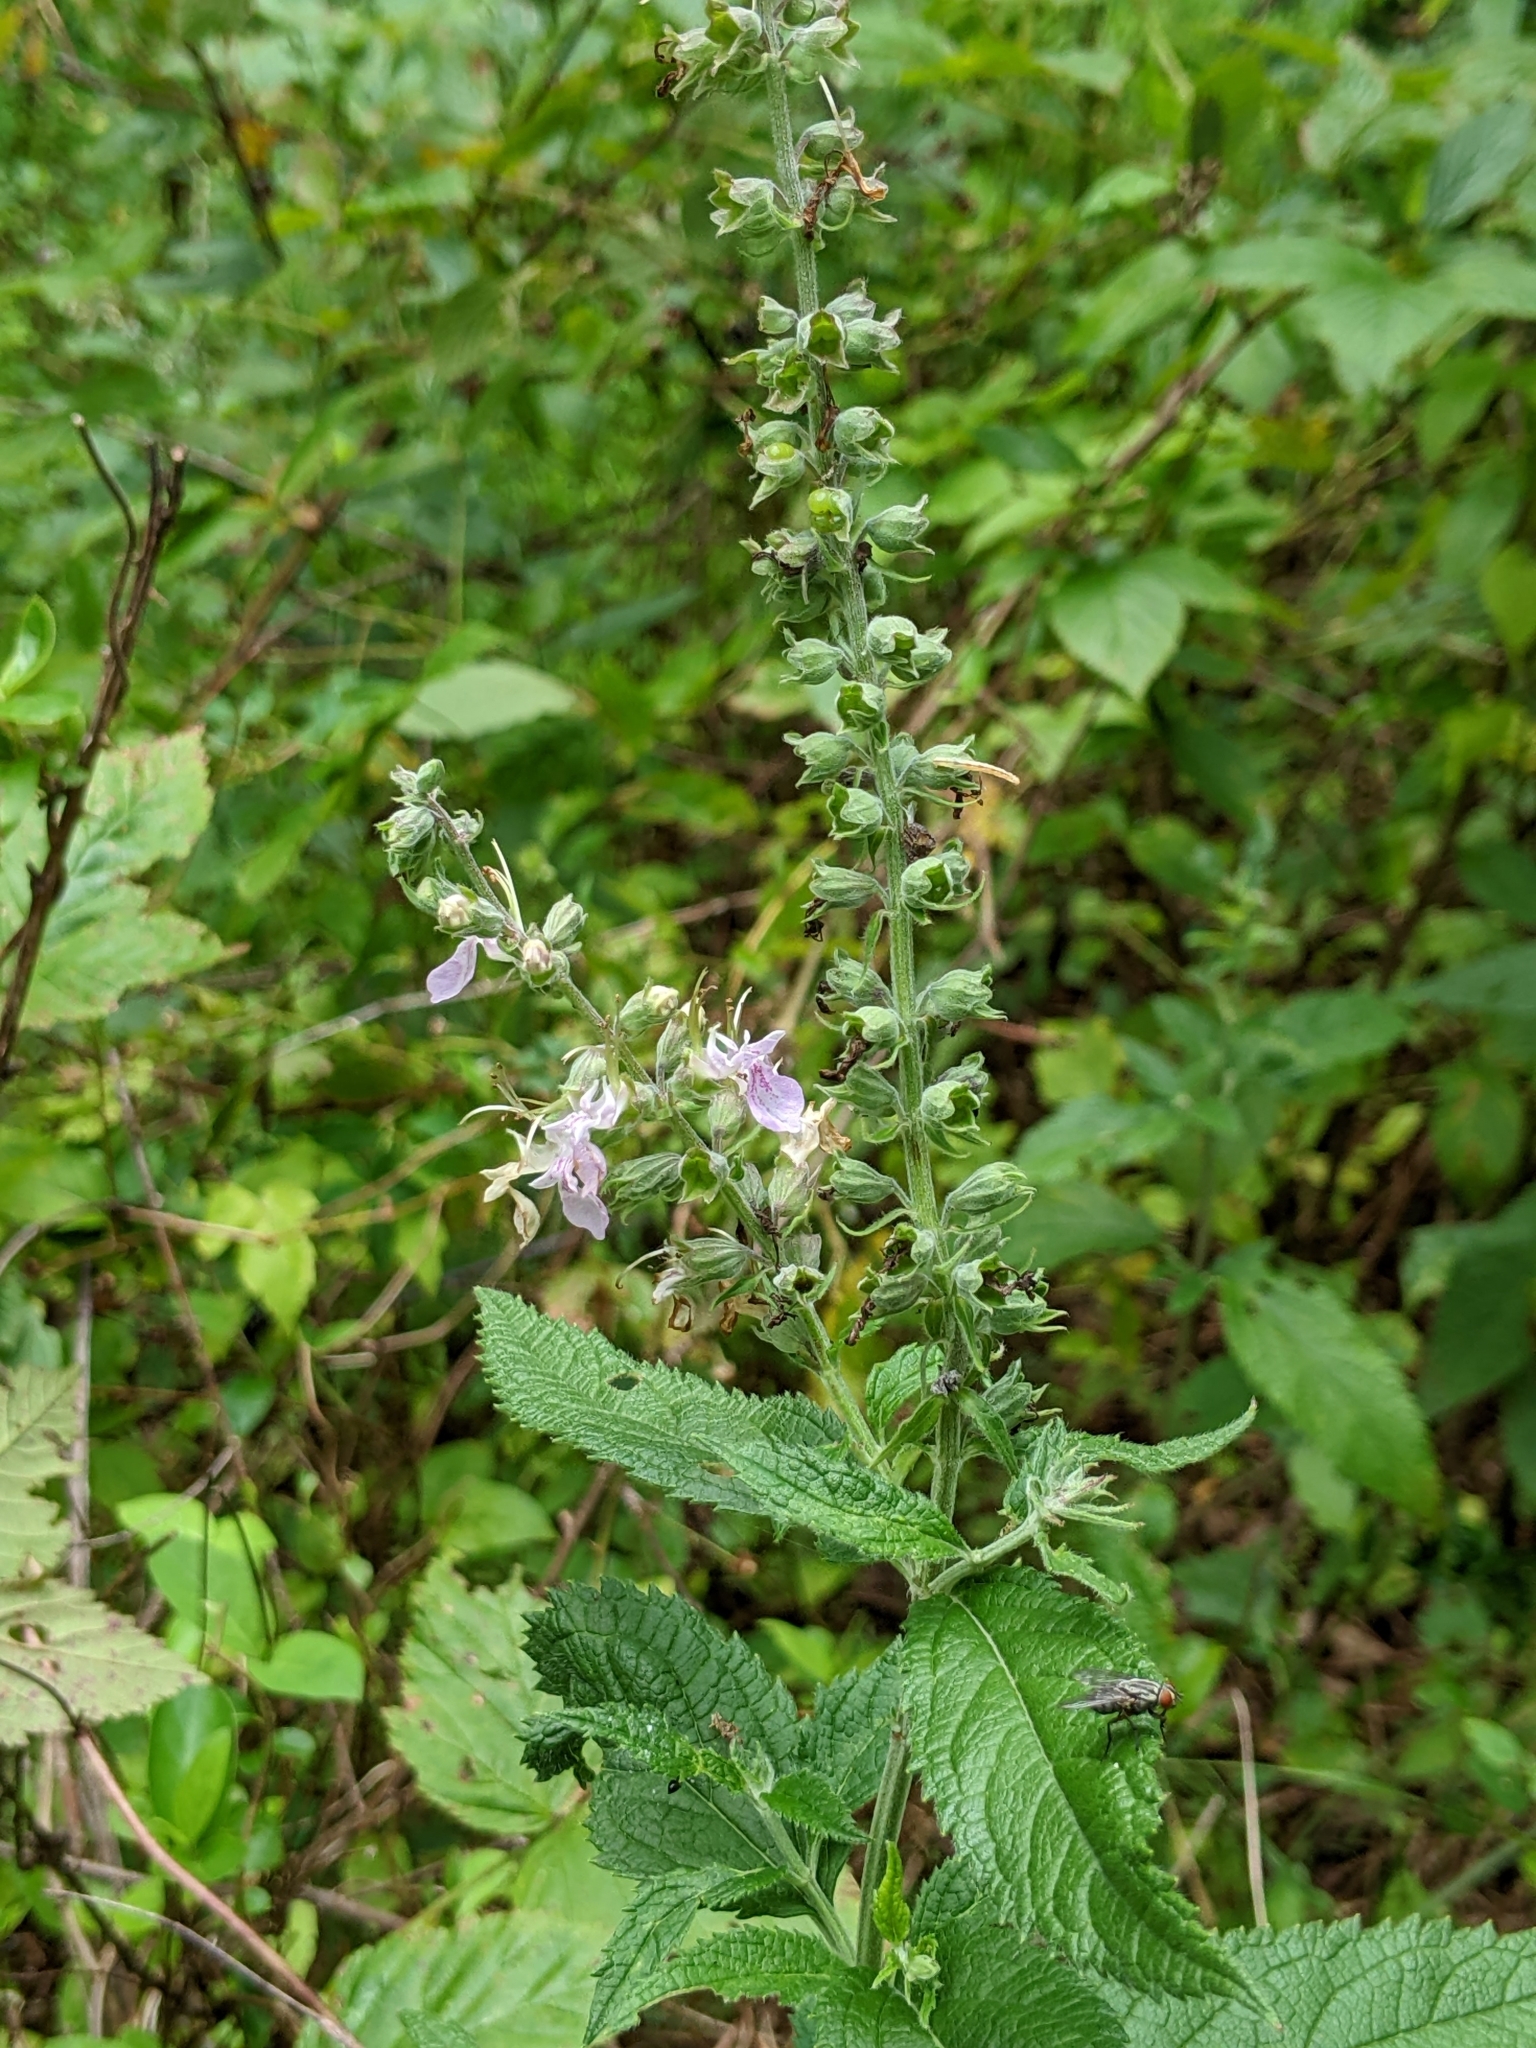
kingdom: Plantae
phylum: Tracheophyta
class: Magnoliopsida
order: Lamiales
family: Lamiaceae
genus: Teucrium
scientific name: Teucrium canadense
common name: American germander
